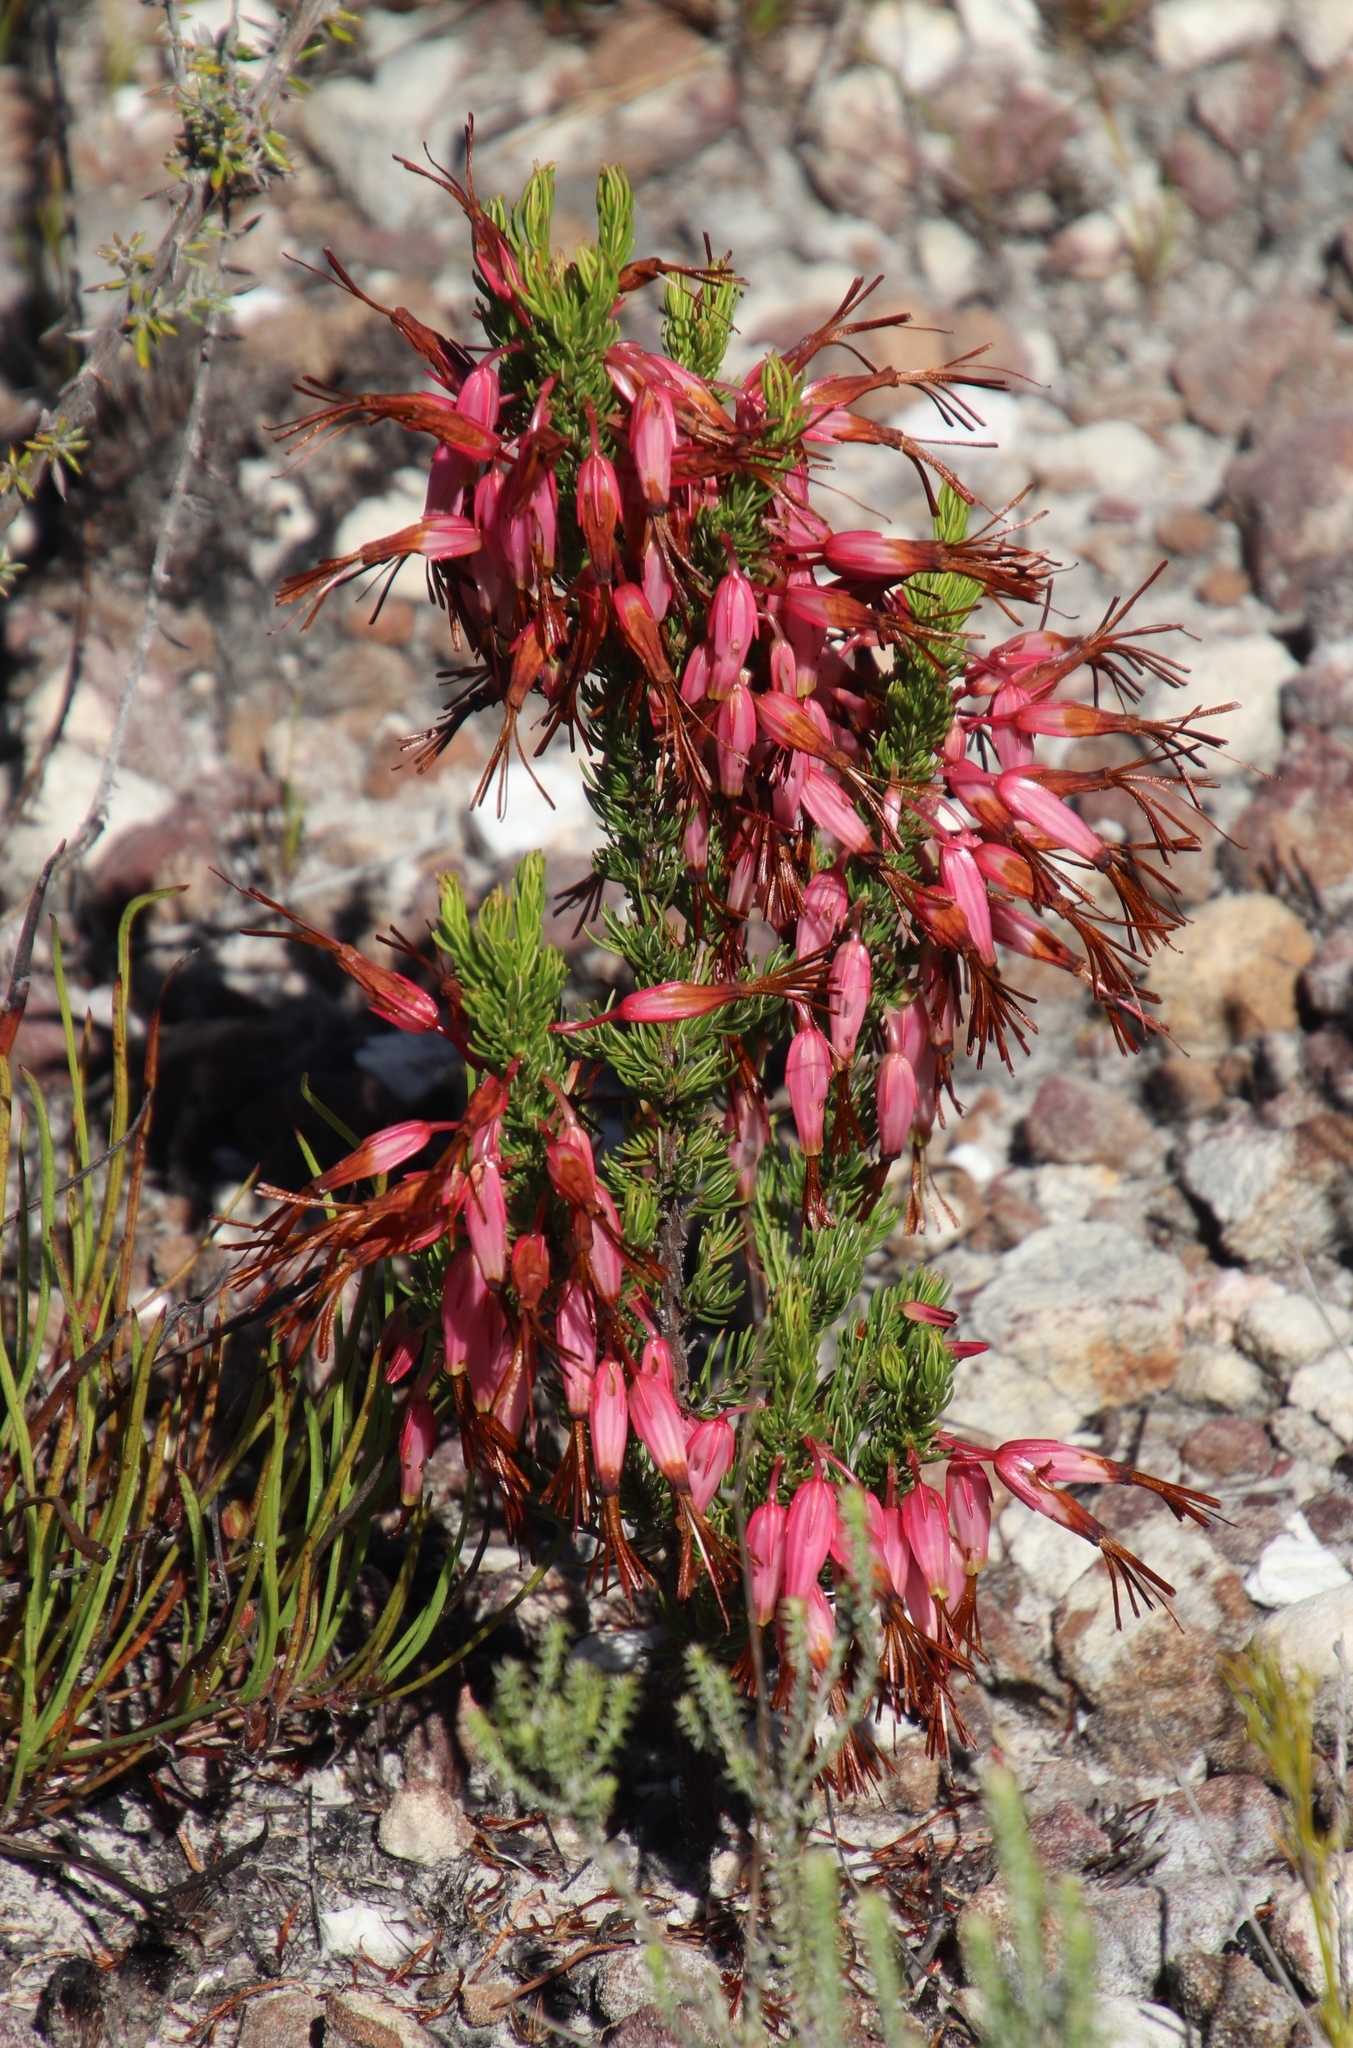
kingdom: Plantae
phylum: Tracheophyta
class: Magnoliopsida
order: Ericales
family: Ericaceae
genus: Erica
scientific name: Erica plukenetii
